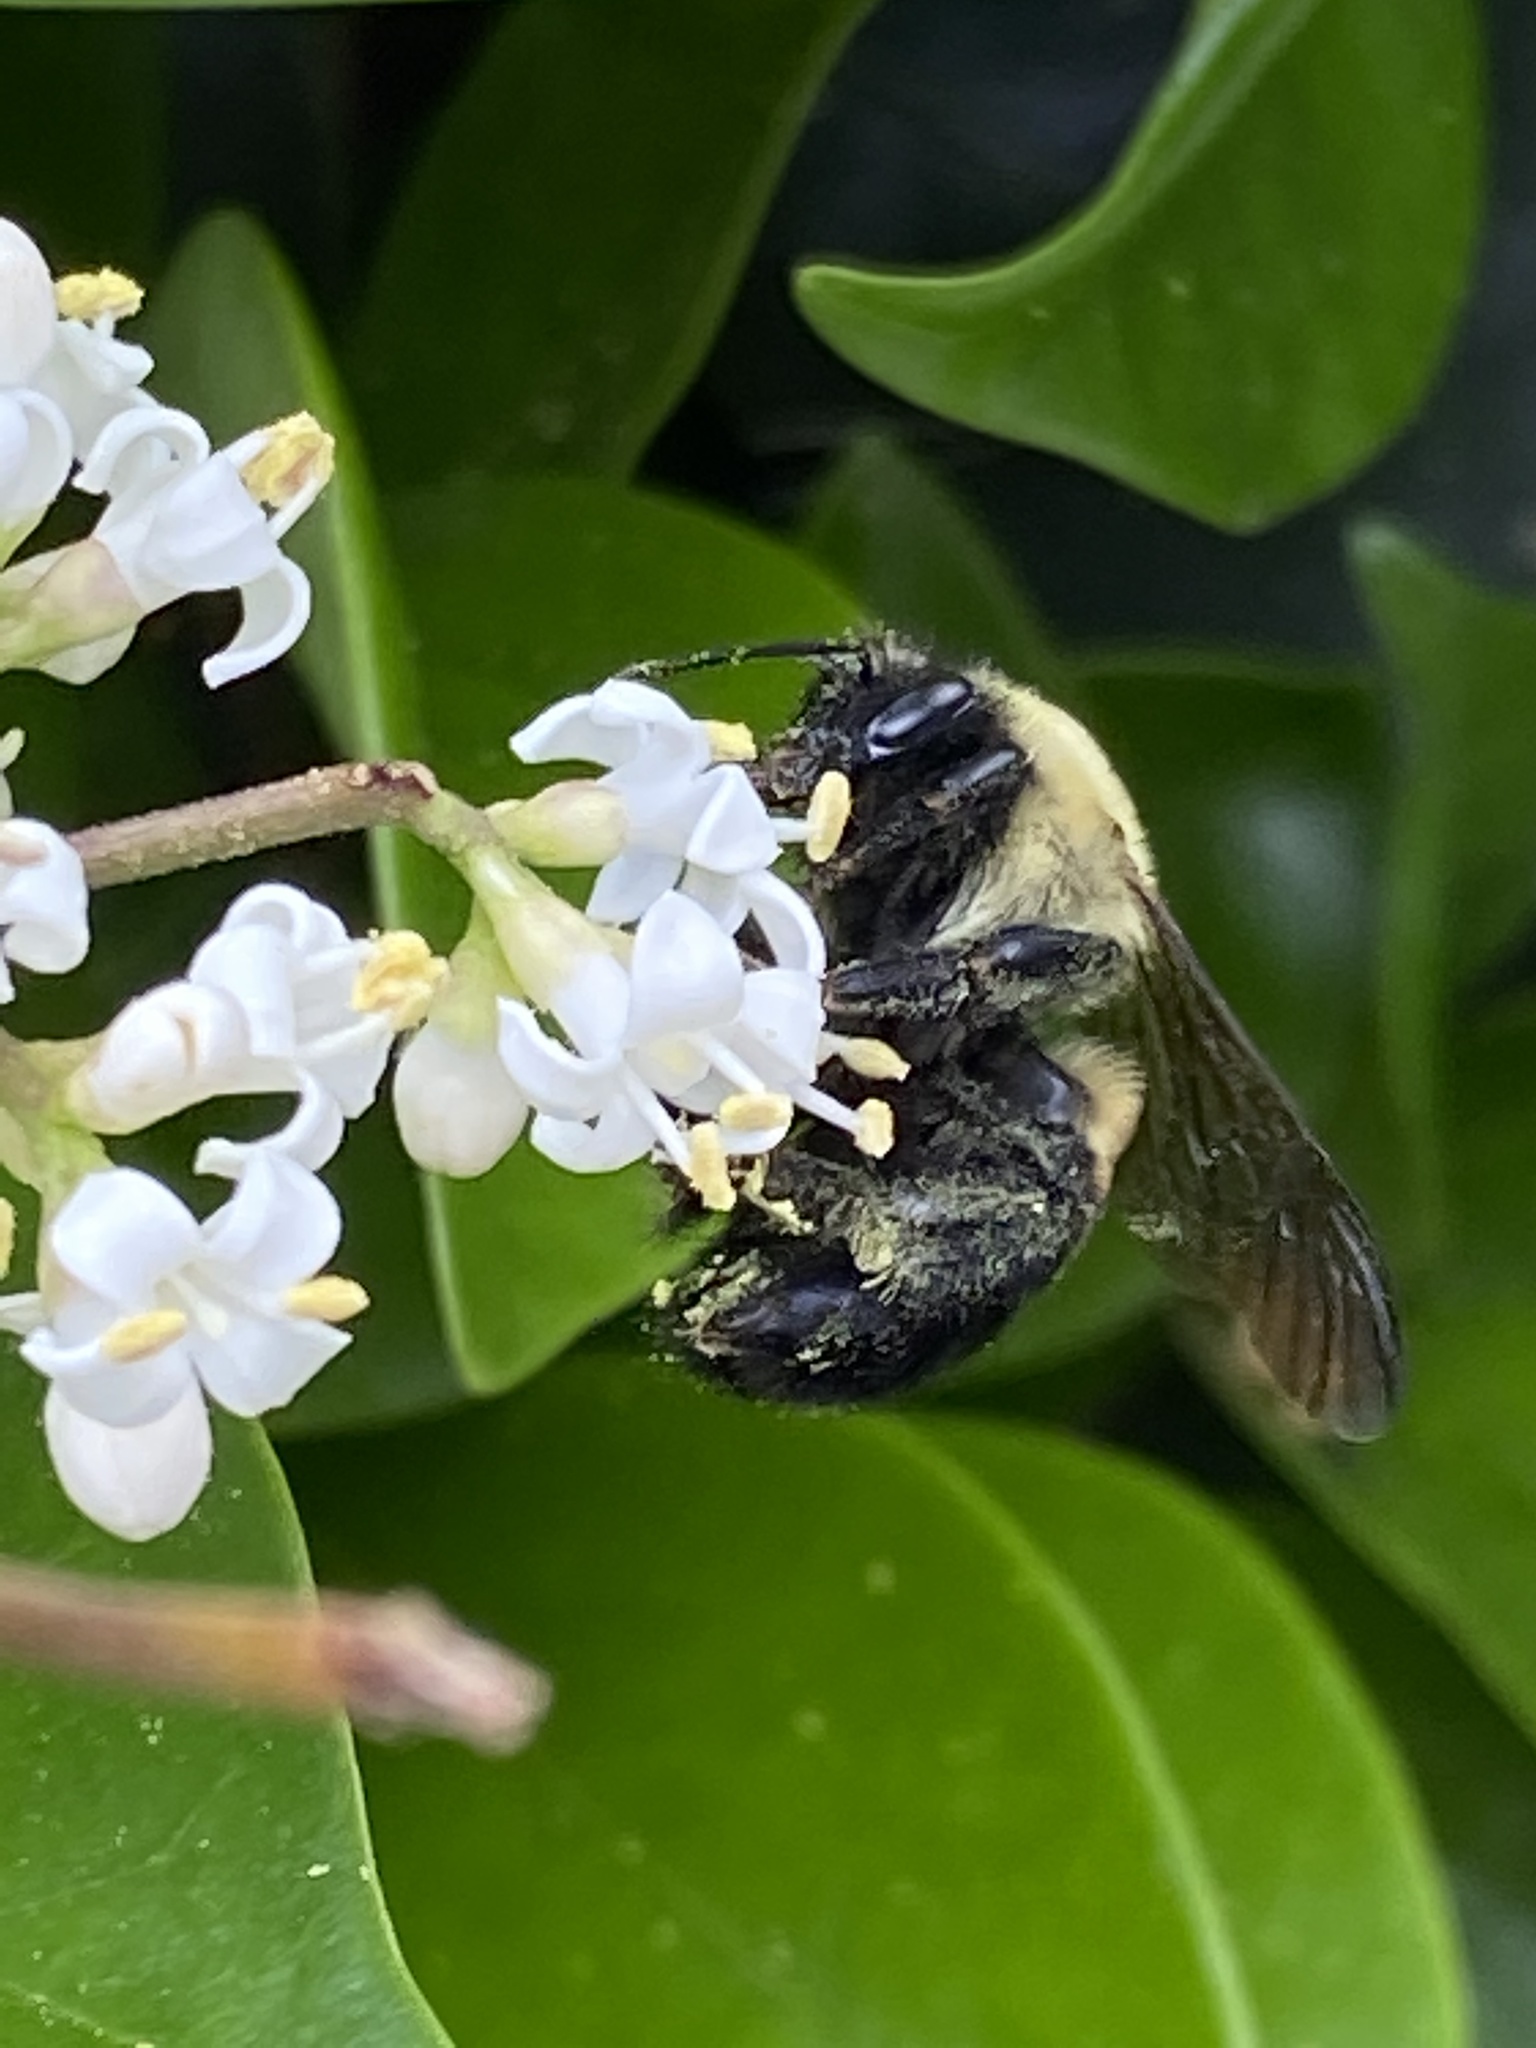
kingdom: Animalia
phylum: Arthropoda
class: Insecta
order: Hymenoptera
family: Apidae
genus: Bombus
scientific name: Bombus griseocollis
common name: Brown-belted bumble bee
